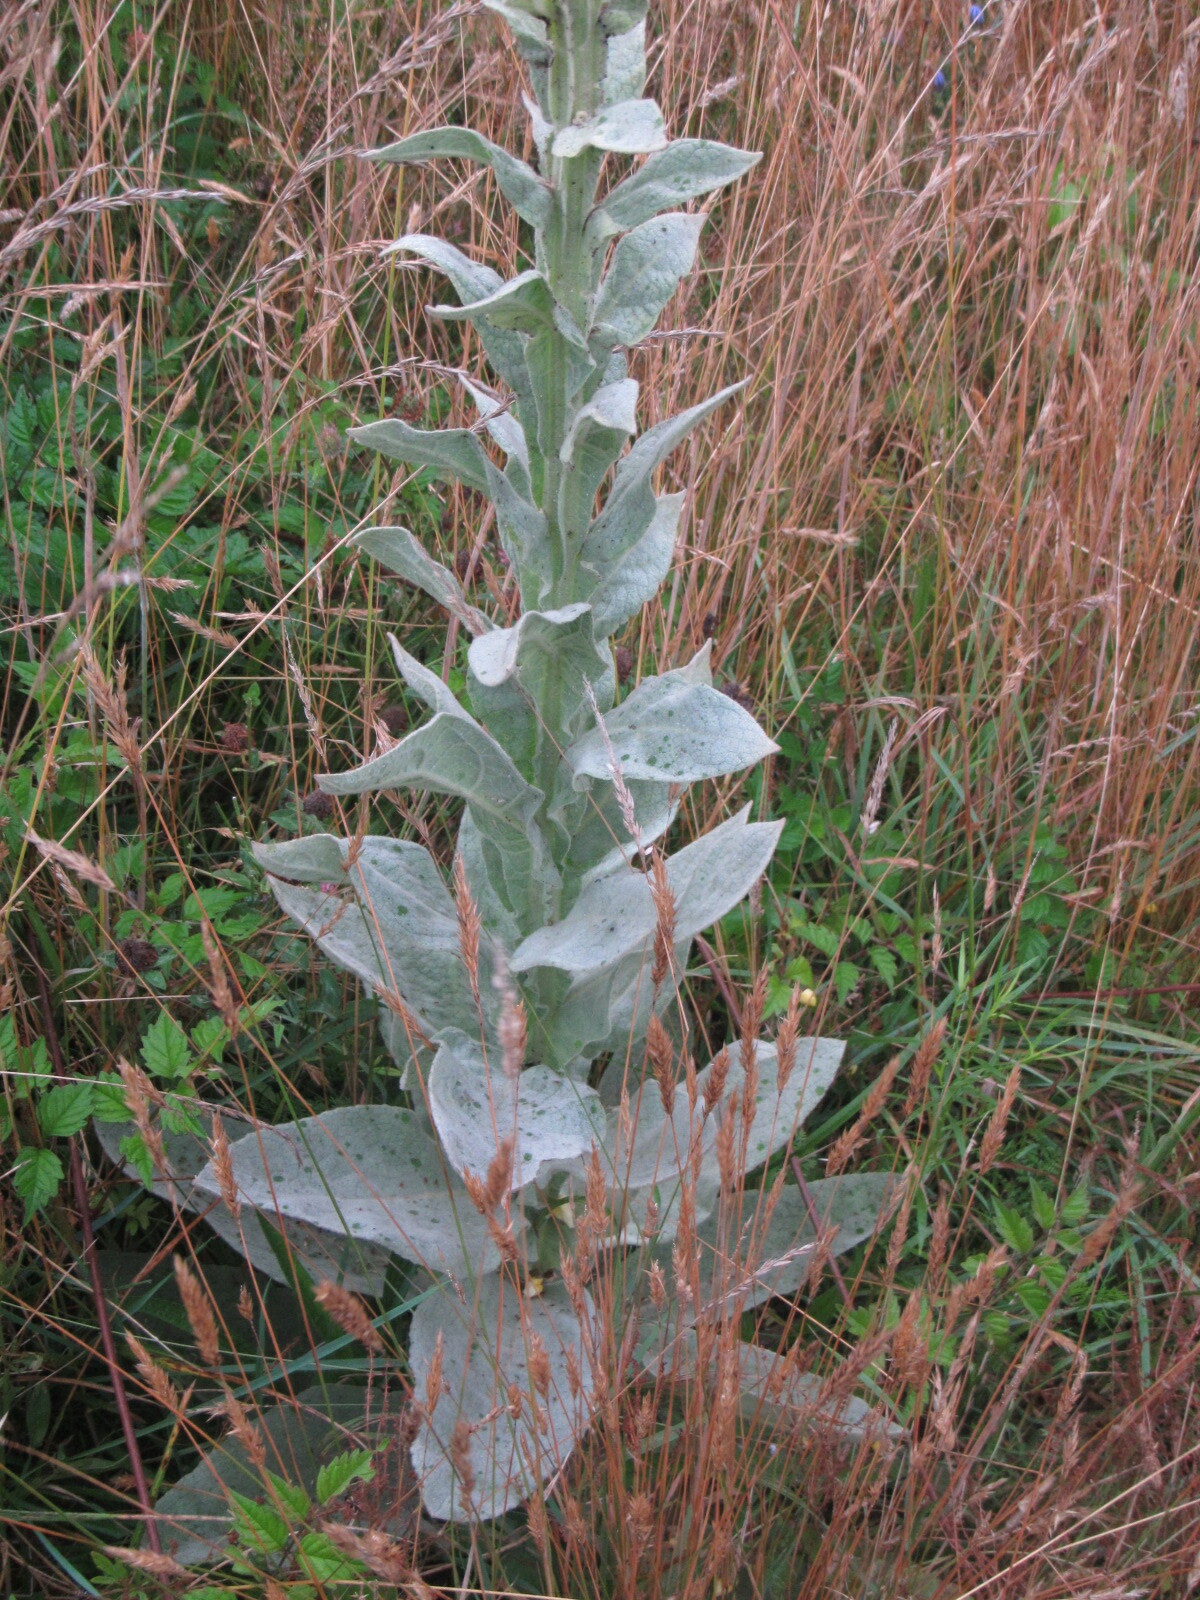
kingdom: Plantae
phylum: Tracheophyta
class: Magnoliopsida
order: Lamiales
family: Scrophulariaceae
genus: Verbascum
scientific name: Verbascum thapsus
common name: Common mullein
